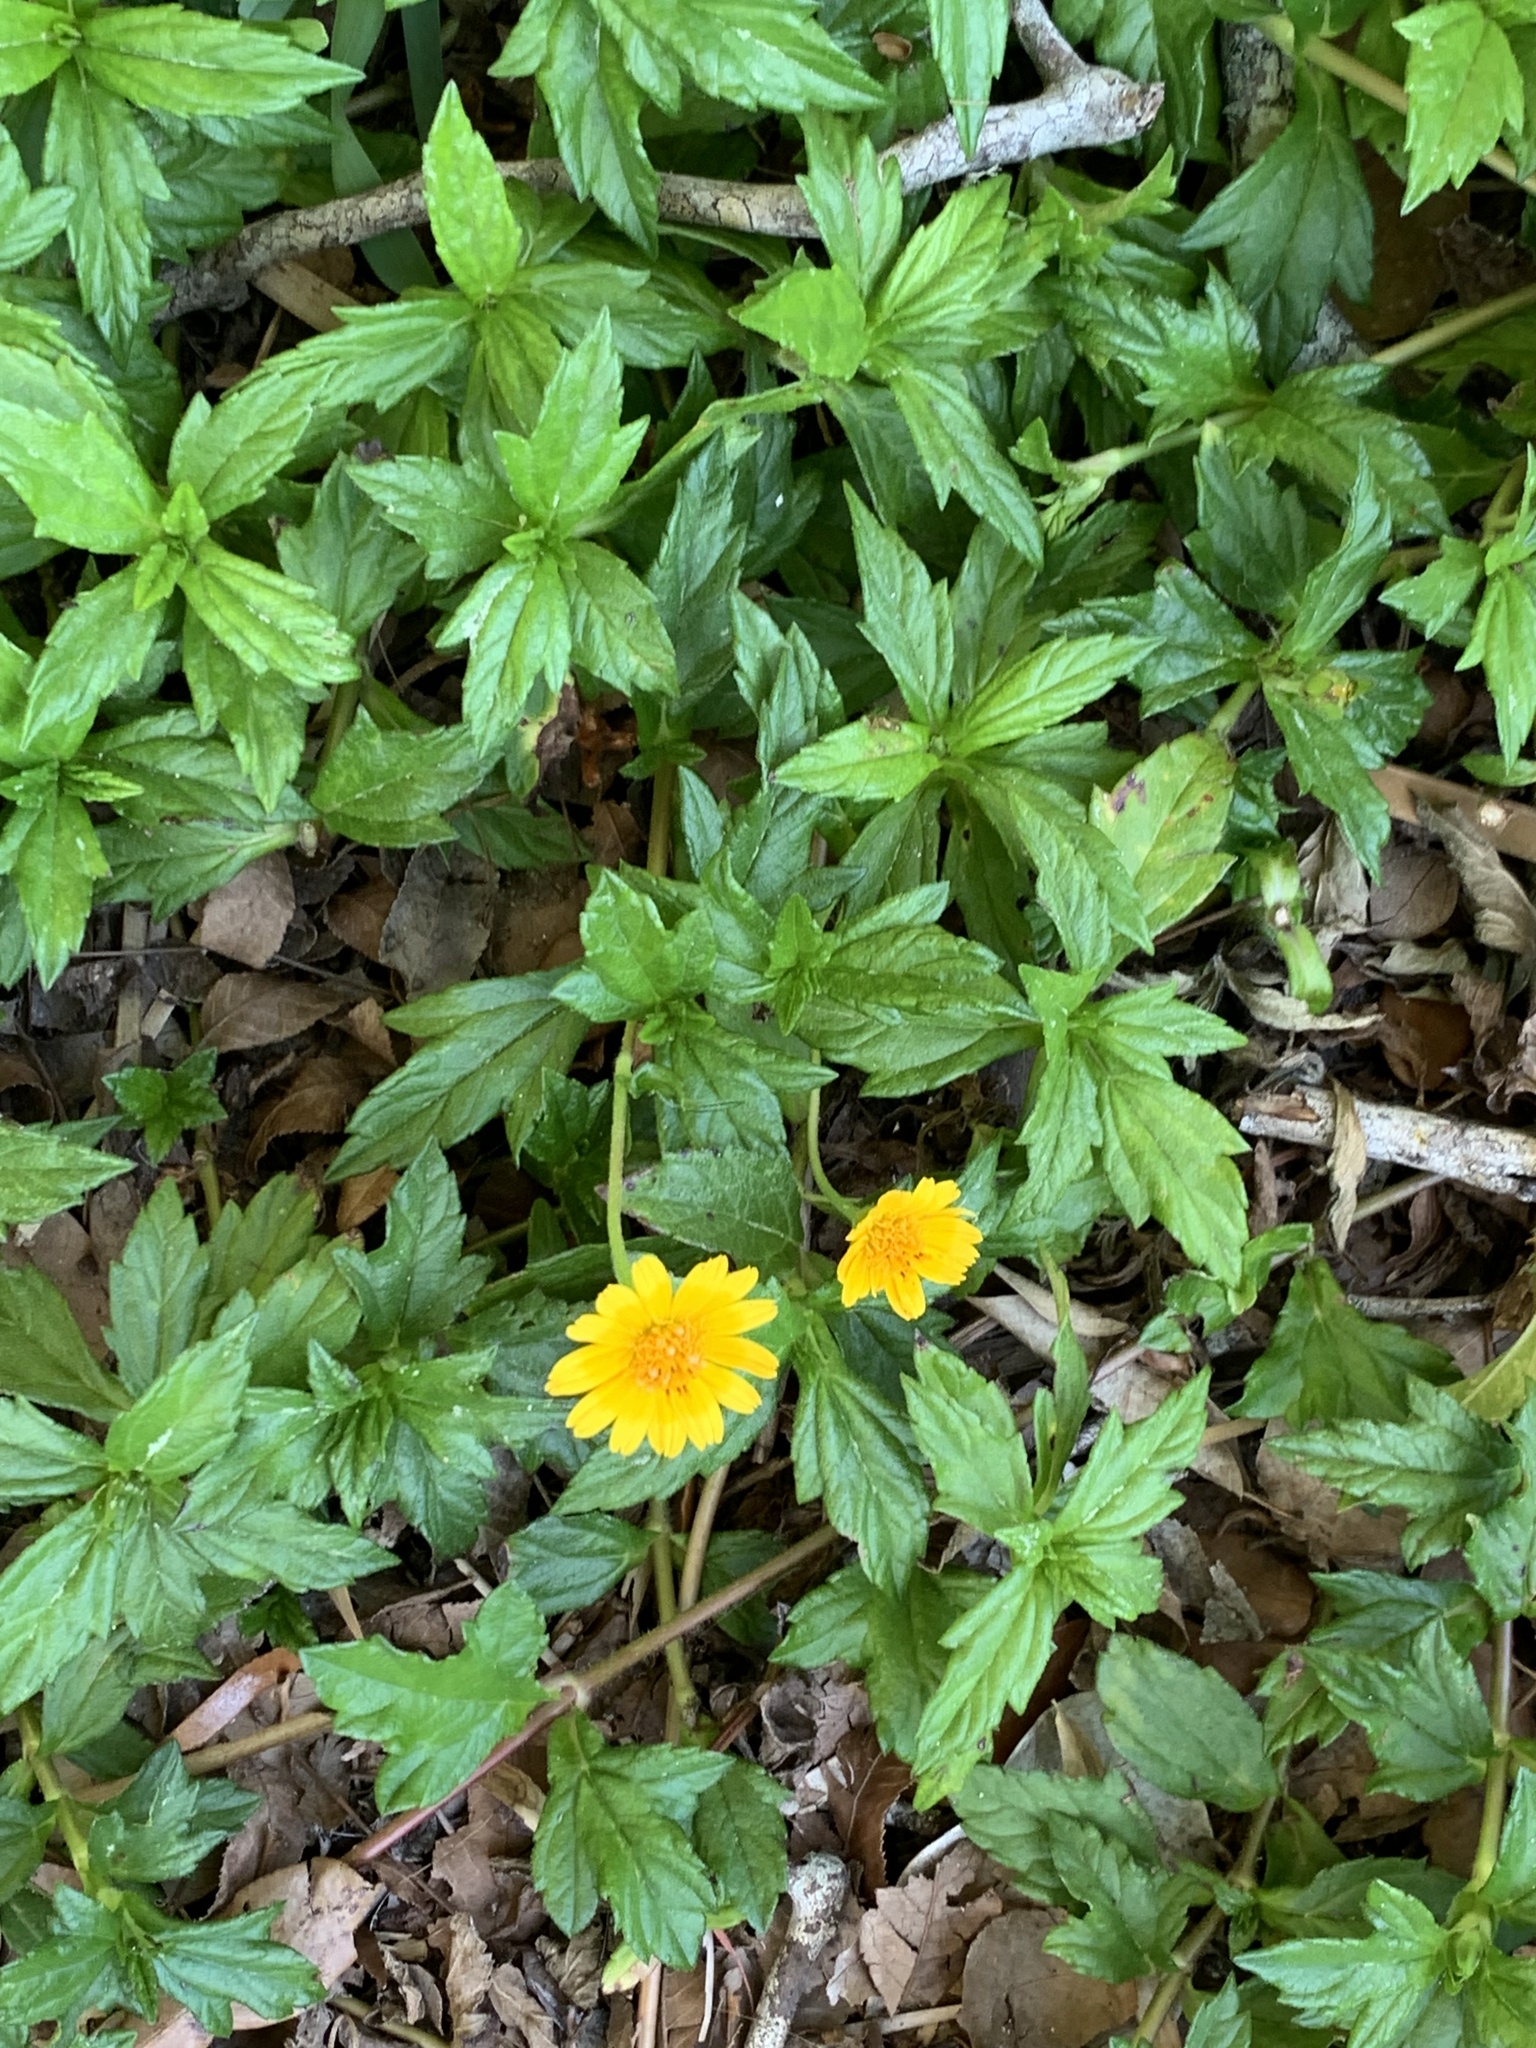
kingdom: Plantae
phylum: Tracheophyta
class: Magnoliopsida
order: Asterales
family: Asteraceae
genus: Sphagneticola
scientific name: Sphagneticola trilobata
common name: Bay biscayne creeping-oxeye
